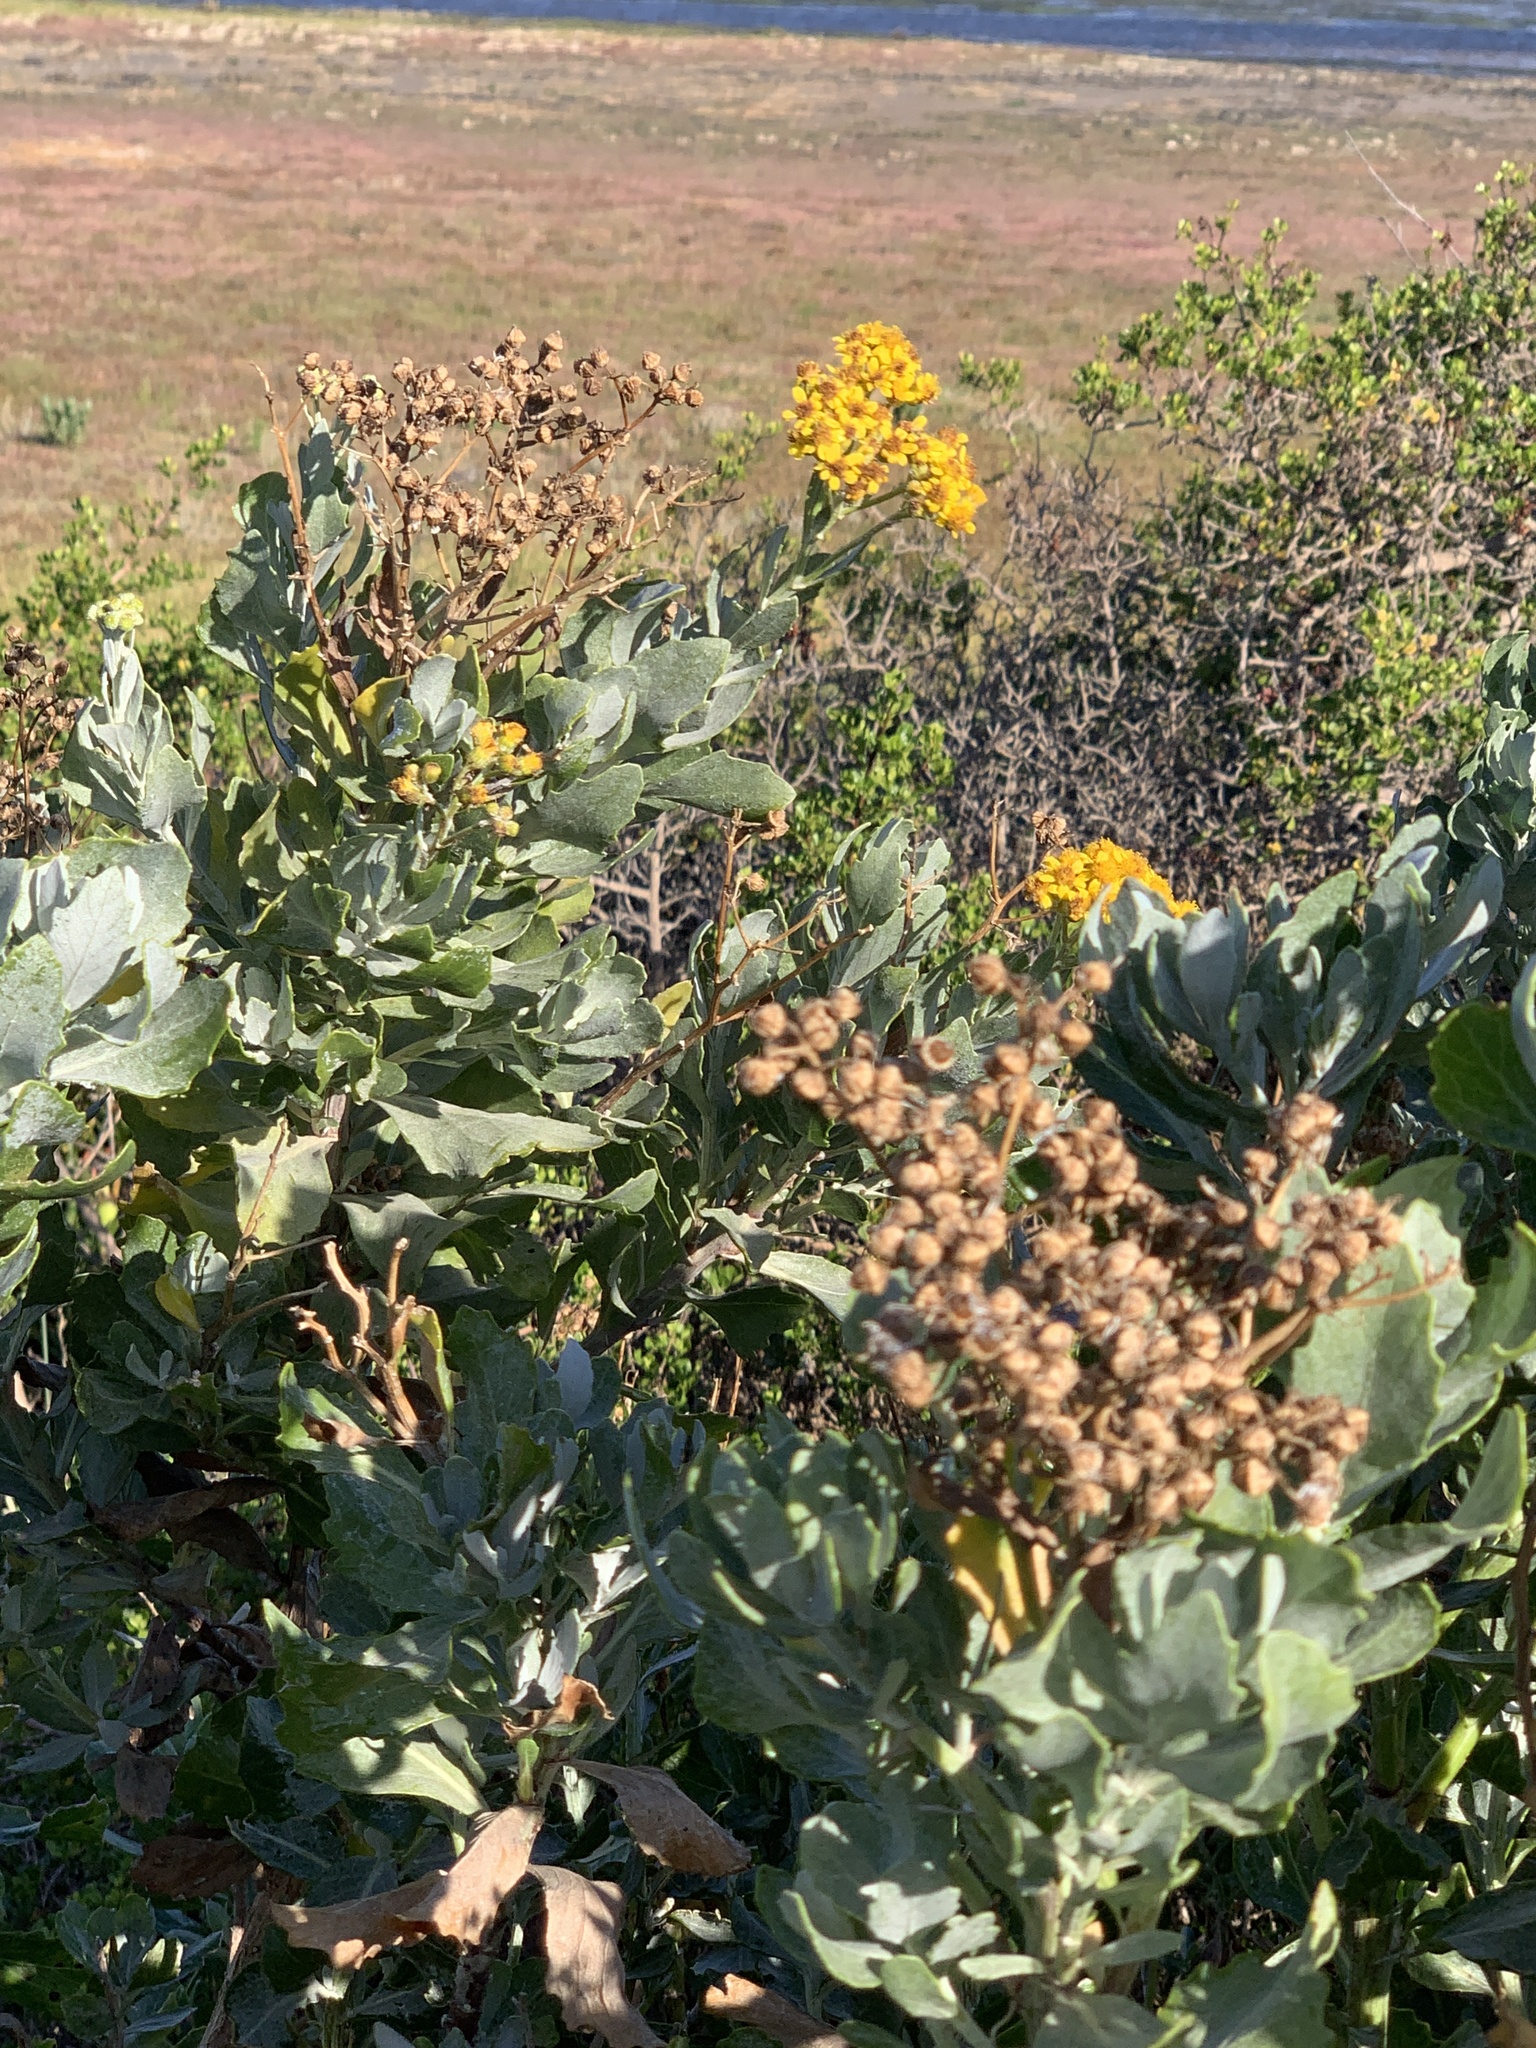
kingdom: Plantae
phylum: Tracheophyta
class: Magnoliopsida
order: Asterales
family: Asteraceae
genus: Senecio
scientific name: Senecio halimifolius
